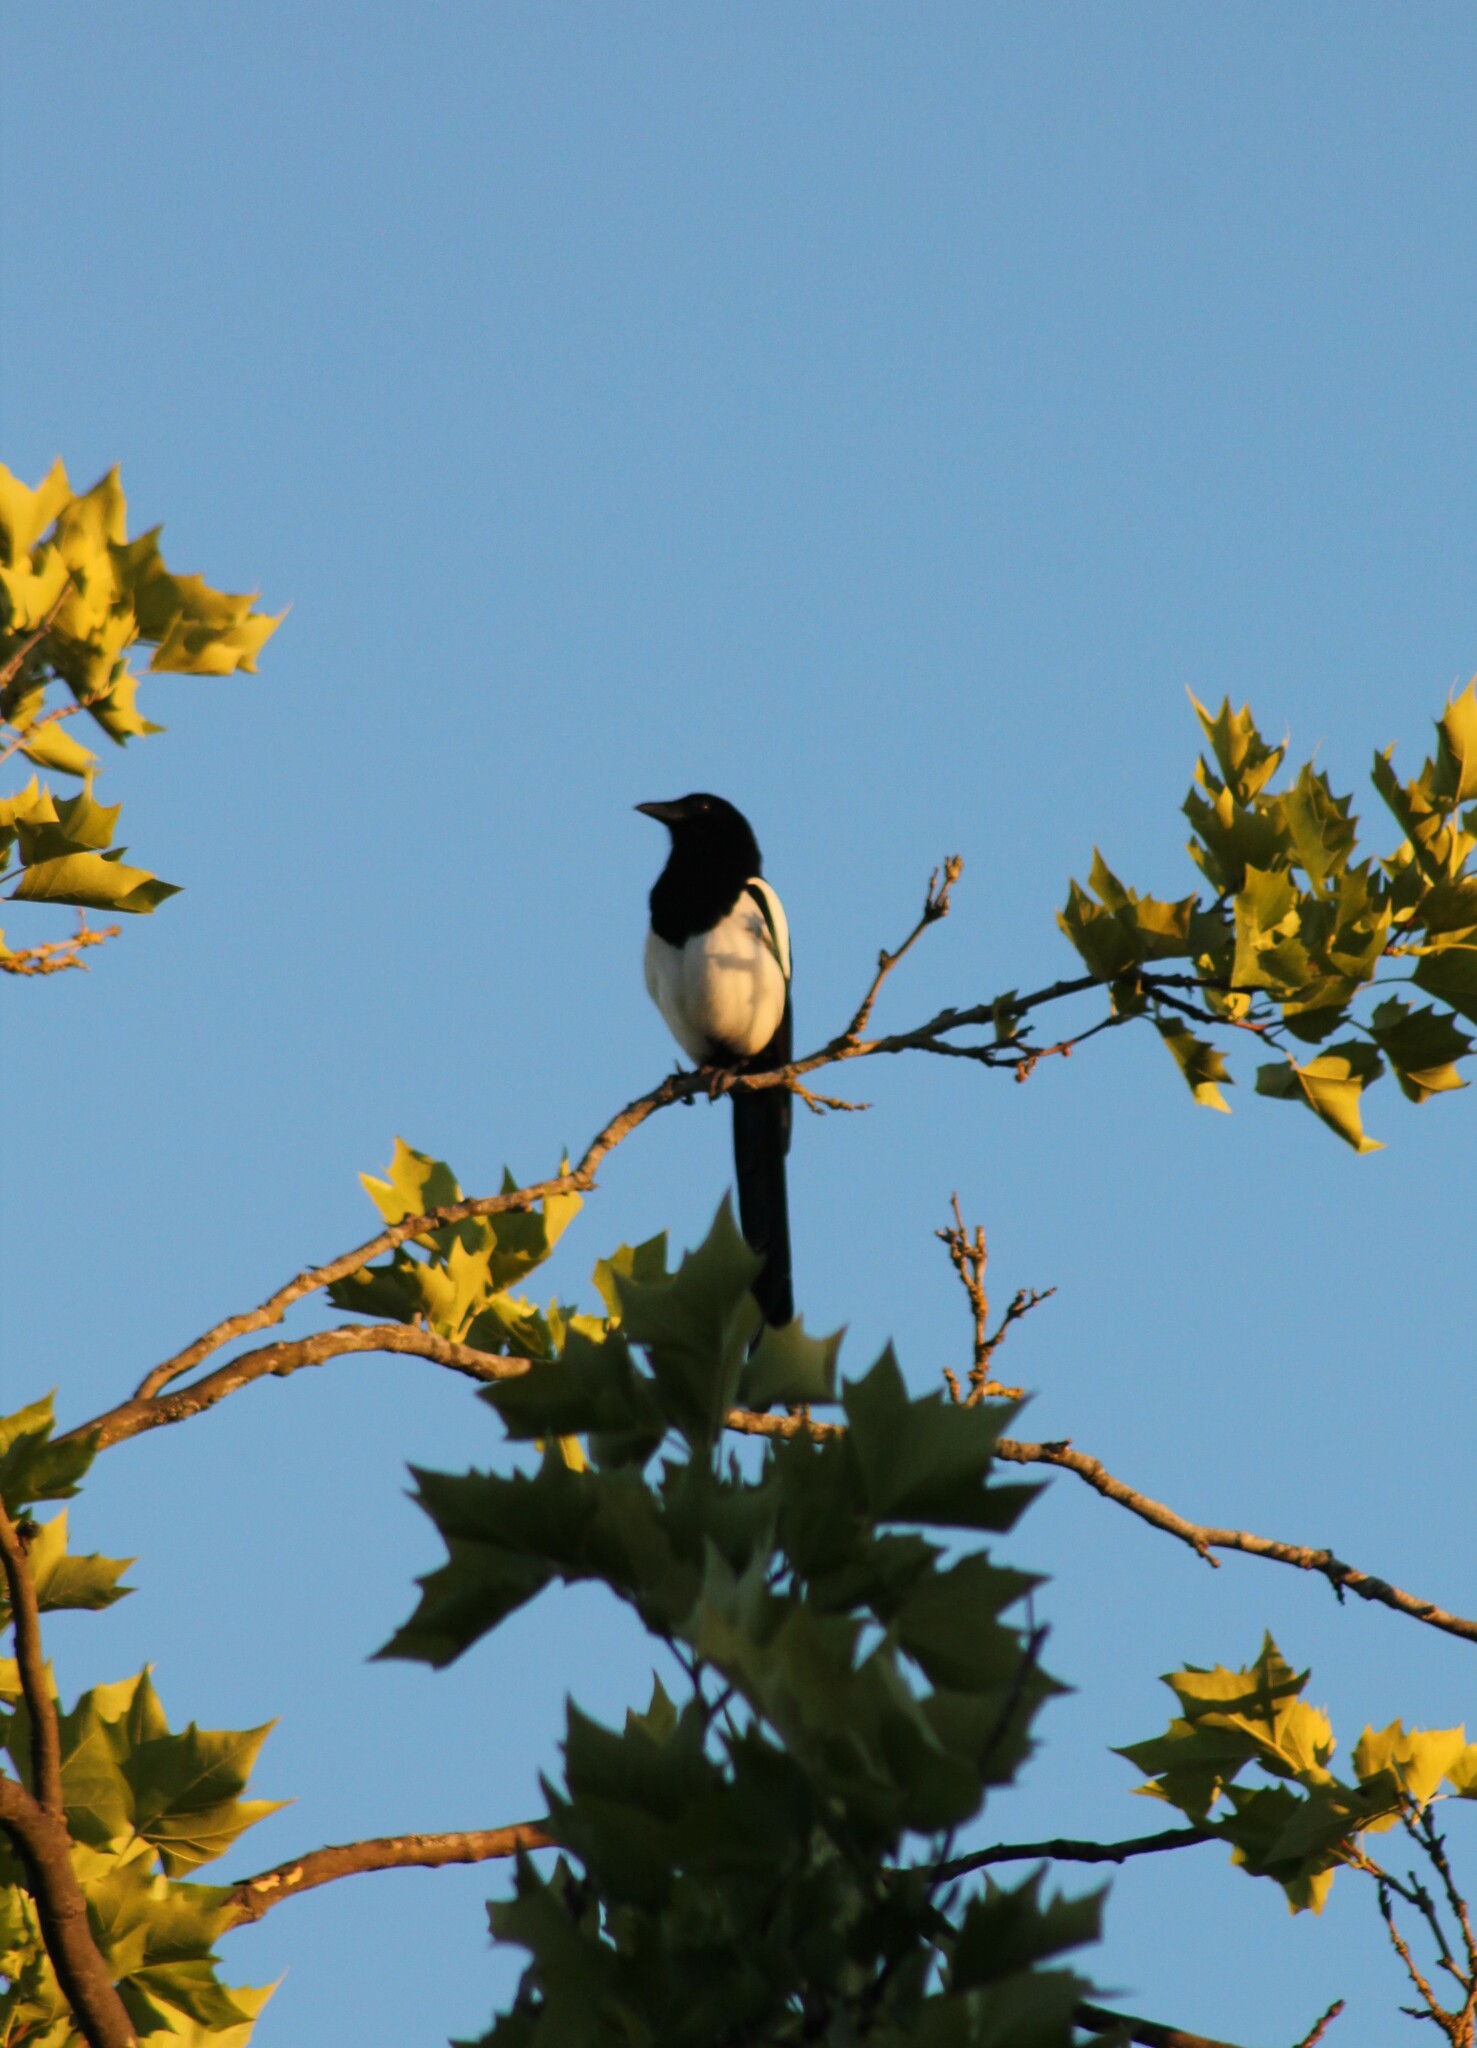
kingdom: Animalia
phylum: Chordata
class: Aves
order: Passeriformes
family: Corvidae
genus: Pica
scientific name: Pica pica
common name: Eurasian magpie
